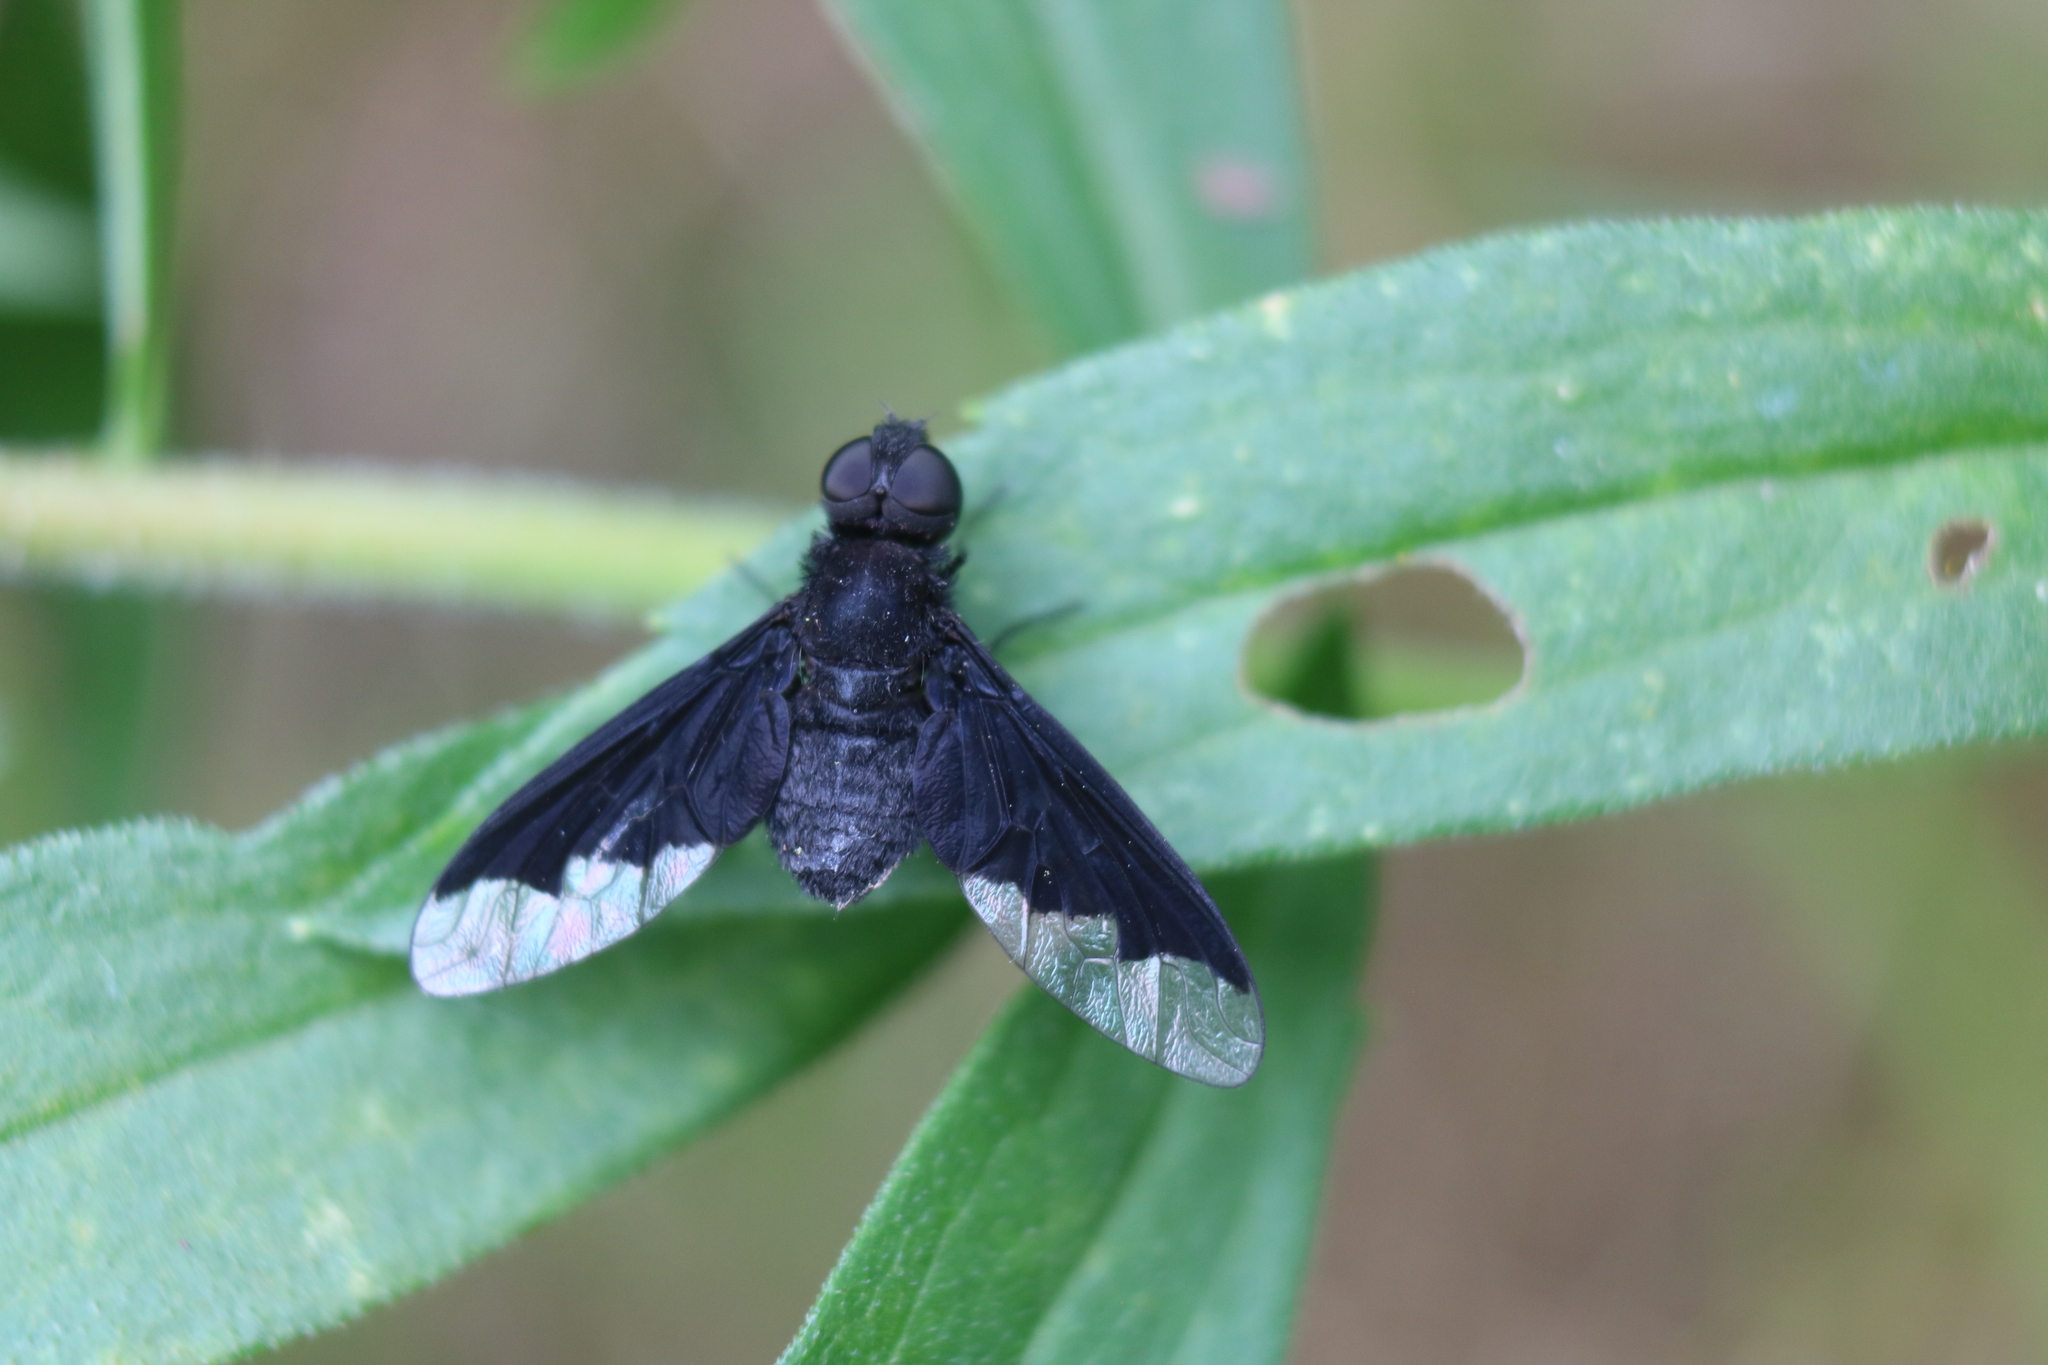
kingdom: Animalia
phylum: Arthropoda
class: Insecta
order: Diptera
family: Bombyliidae
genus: Anthrax
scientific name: Anthrax analis
